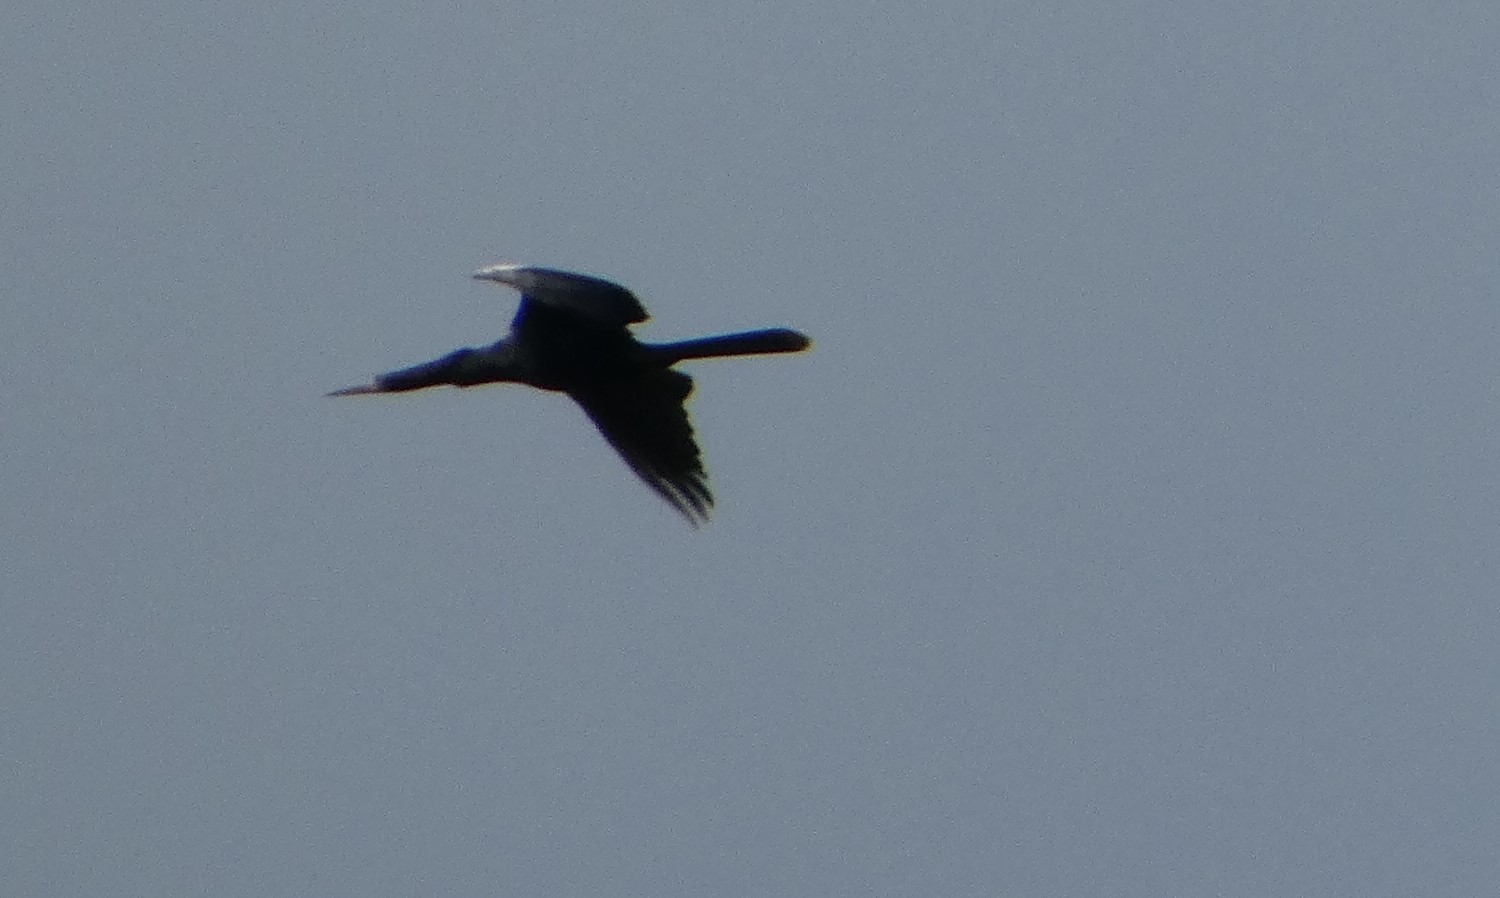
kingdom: Animalia
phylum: Chordata
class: Aves
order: Suliformes
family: Anhingidae
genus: Anhinga
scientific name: Anhinga anhinga
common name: Anhinga
